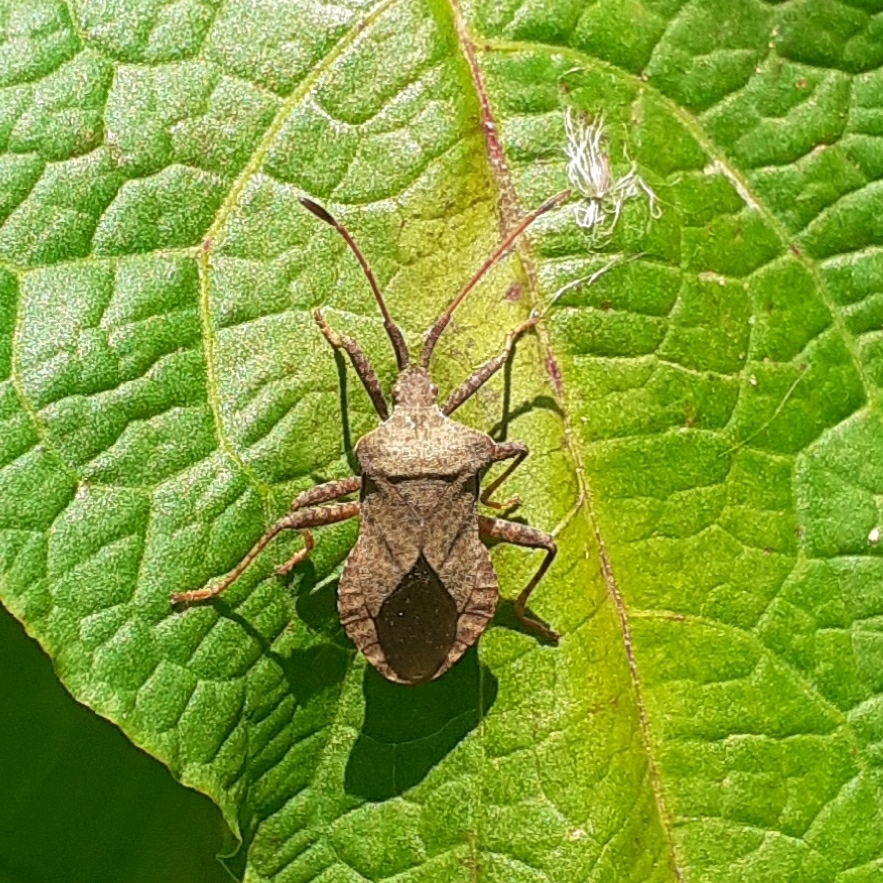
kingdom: Animalia
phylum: Arthropoda
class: Insecta
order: Hemiptera
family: Coreidae
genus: Coreus
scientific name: Coreus marginatus
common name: Dock bug
